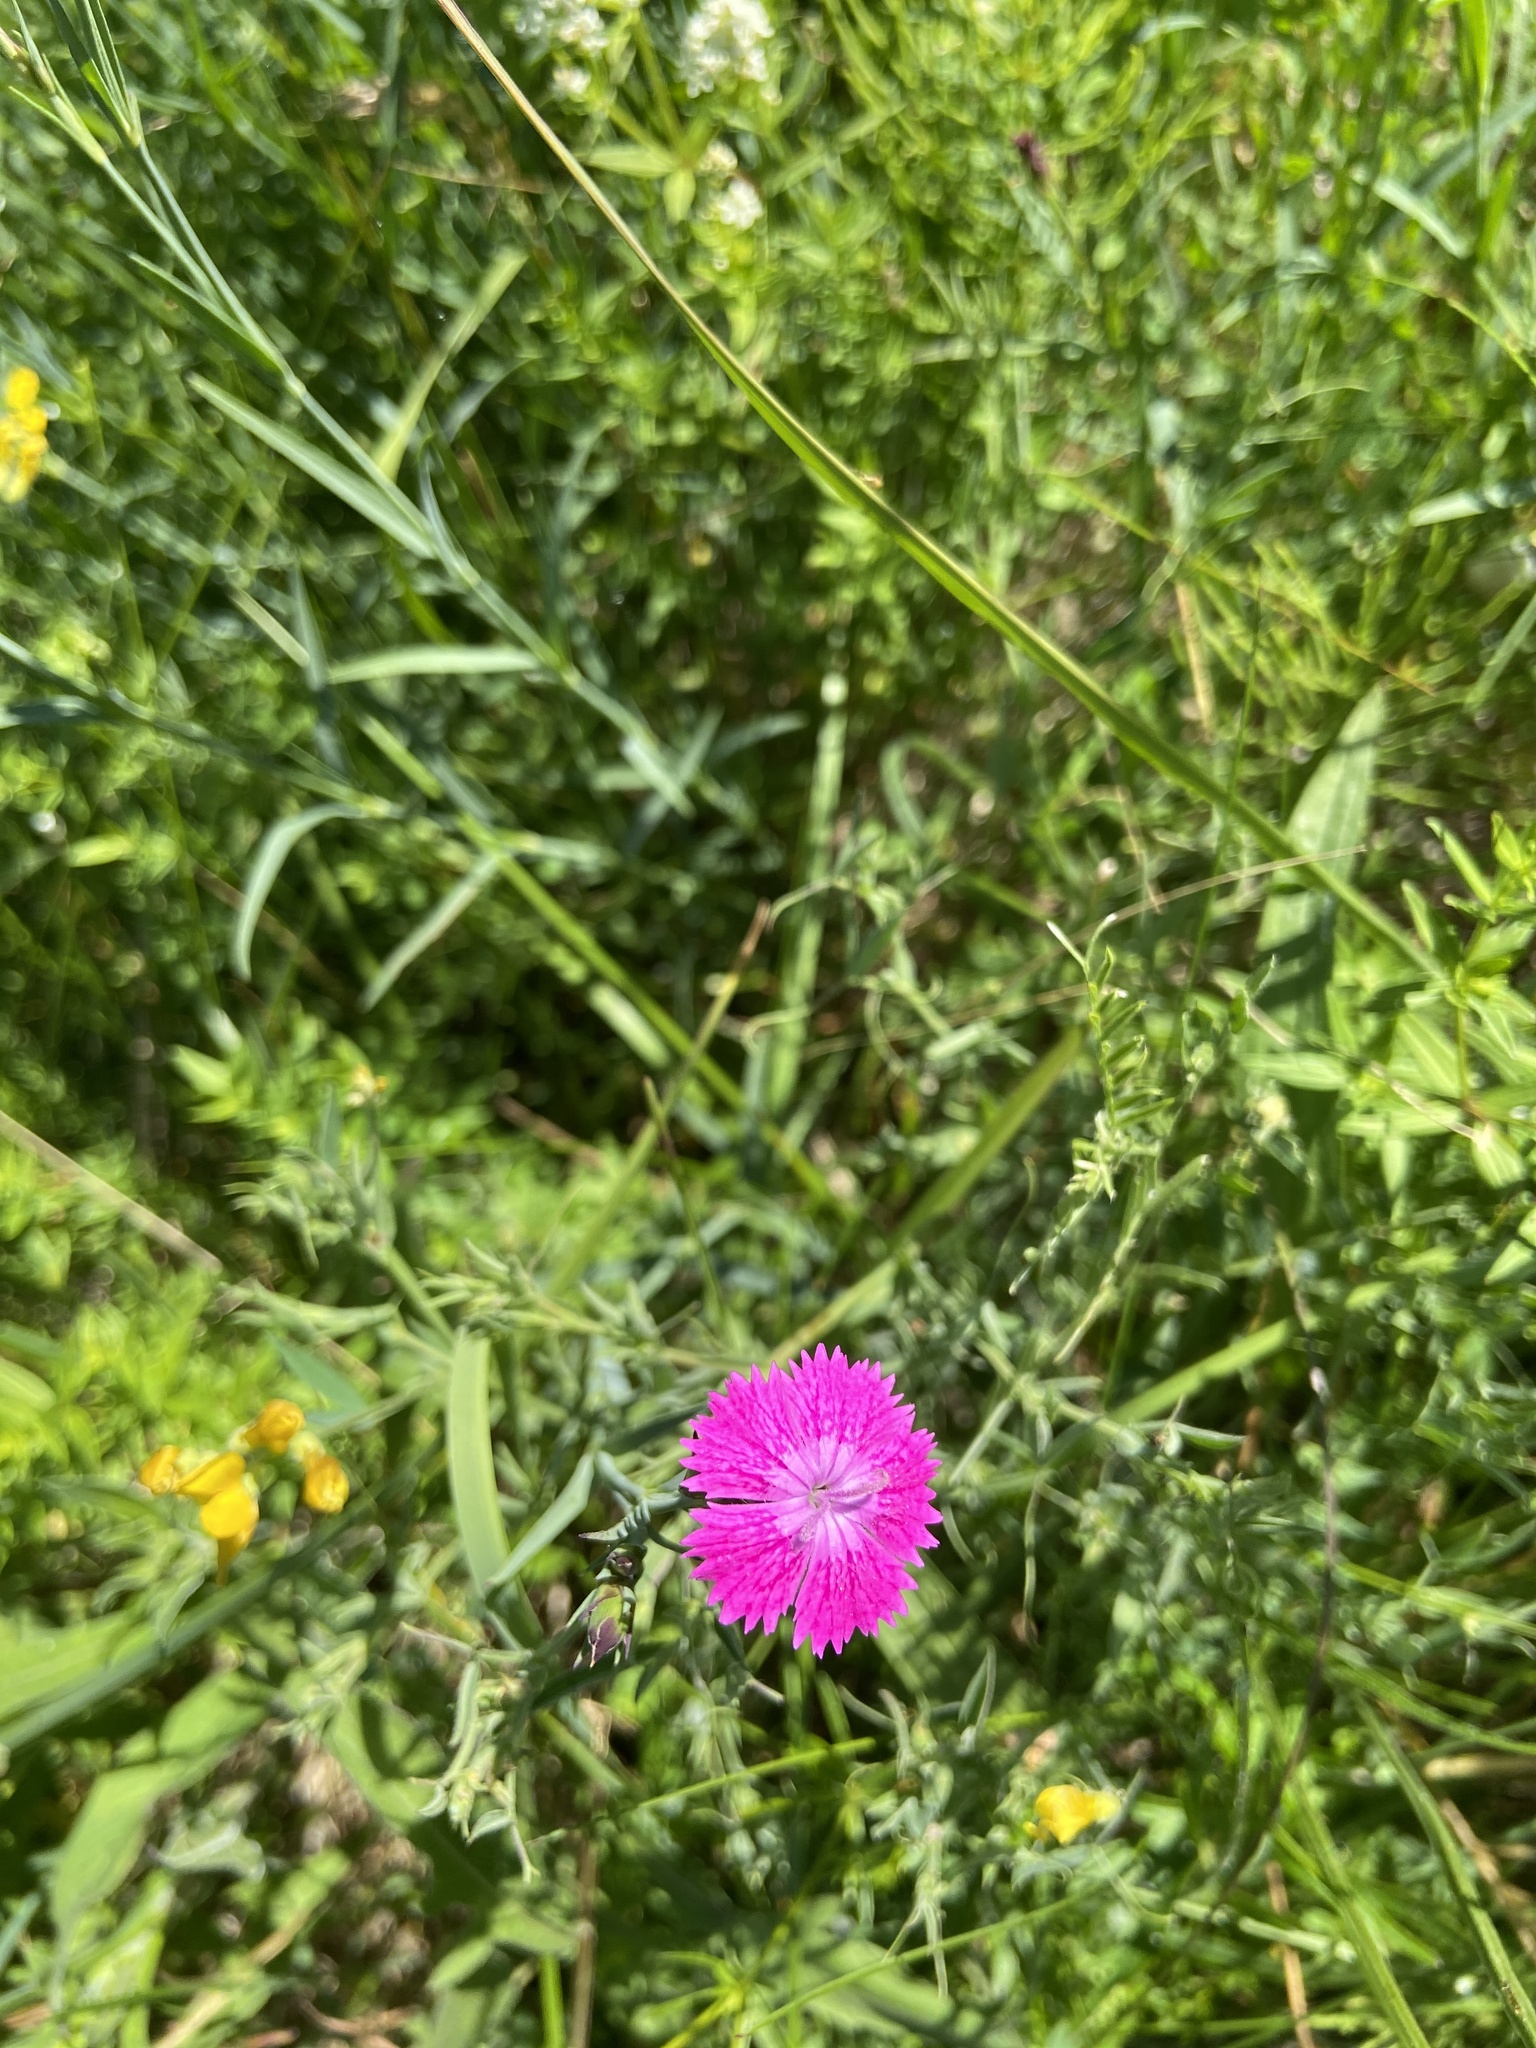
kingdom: Plantae
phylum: Tracheophyta
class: Magnoliopsida
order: Caryophyllales
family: Caryophyllaceae
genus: Dianthus
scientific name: Dianthus chinensis
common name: Rainbow pink
